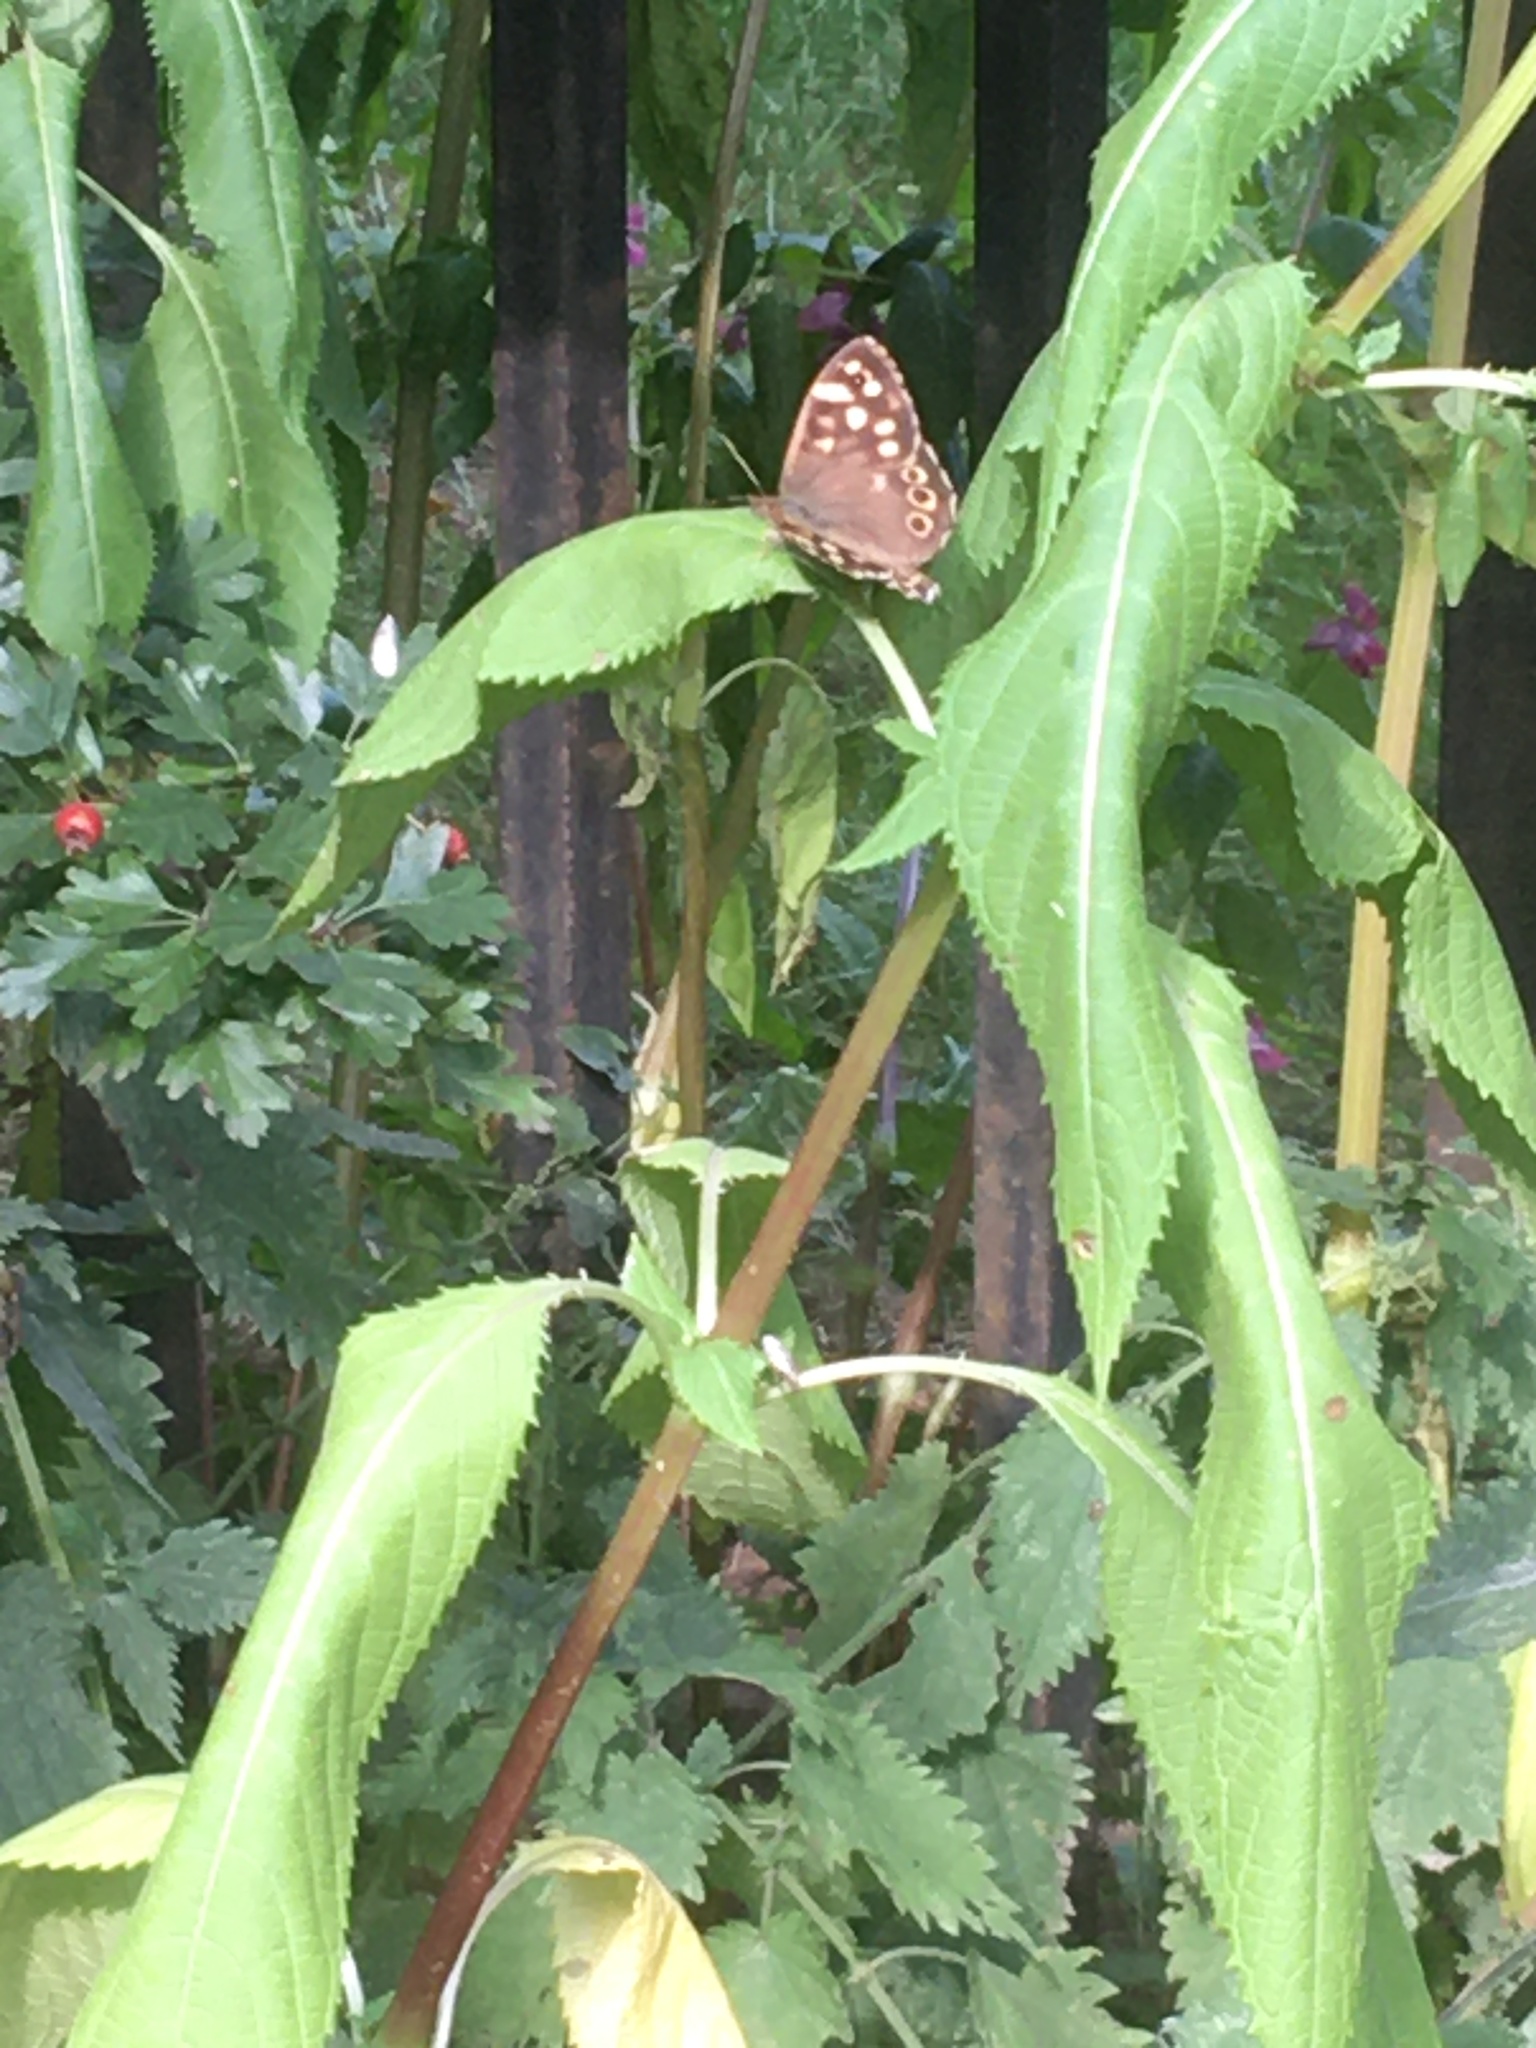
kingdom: Animalia
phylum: Arthropoda
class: Insecta
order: Lepidoptera
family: Nymphalidae
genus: Pararge
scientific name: Pararge aegeria
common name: Speckled wood
